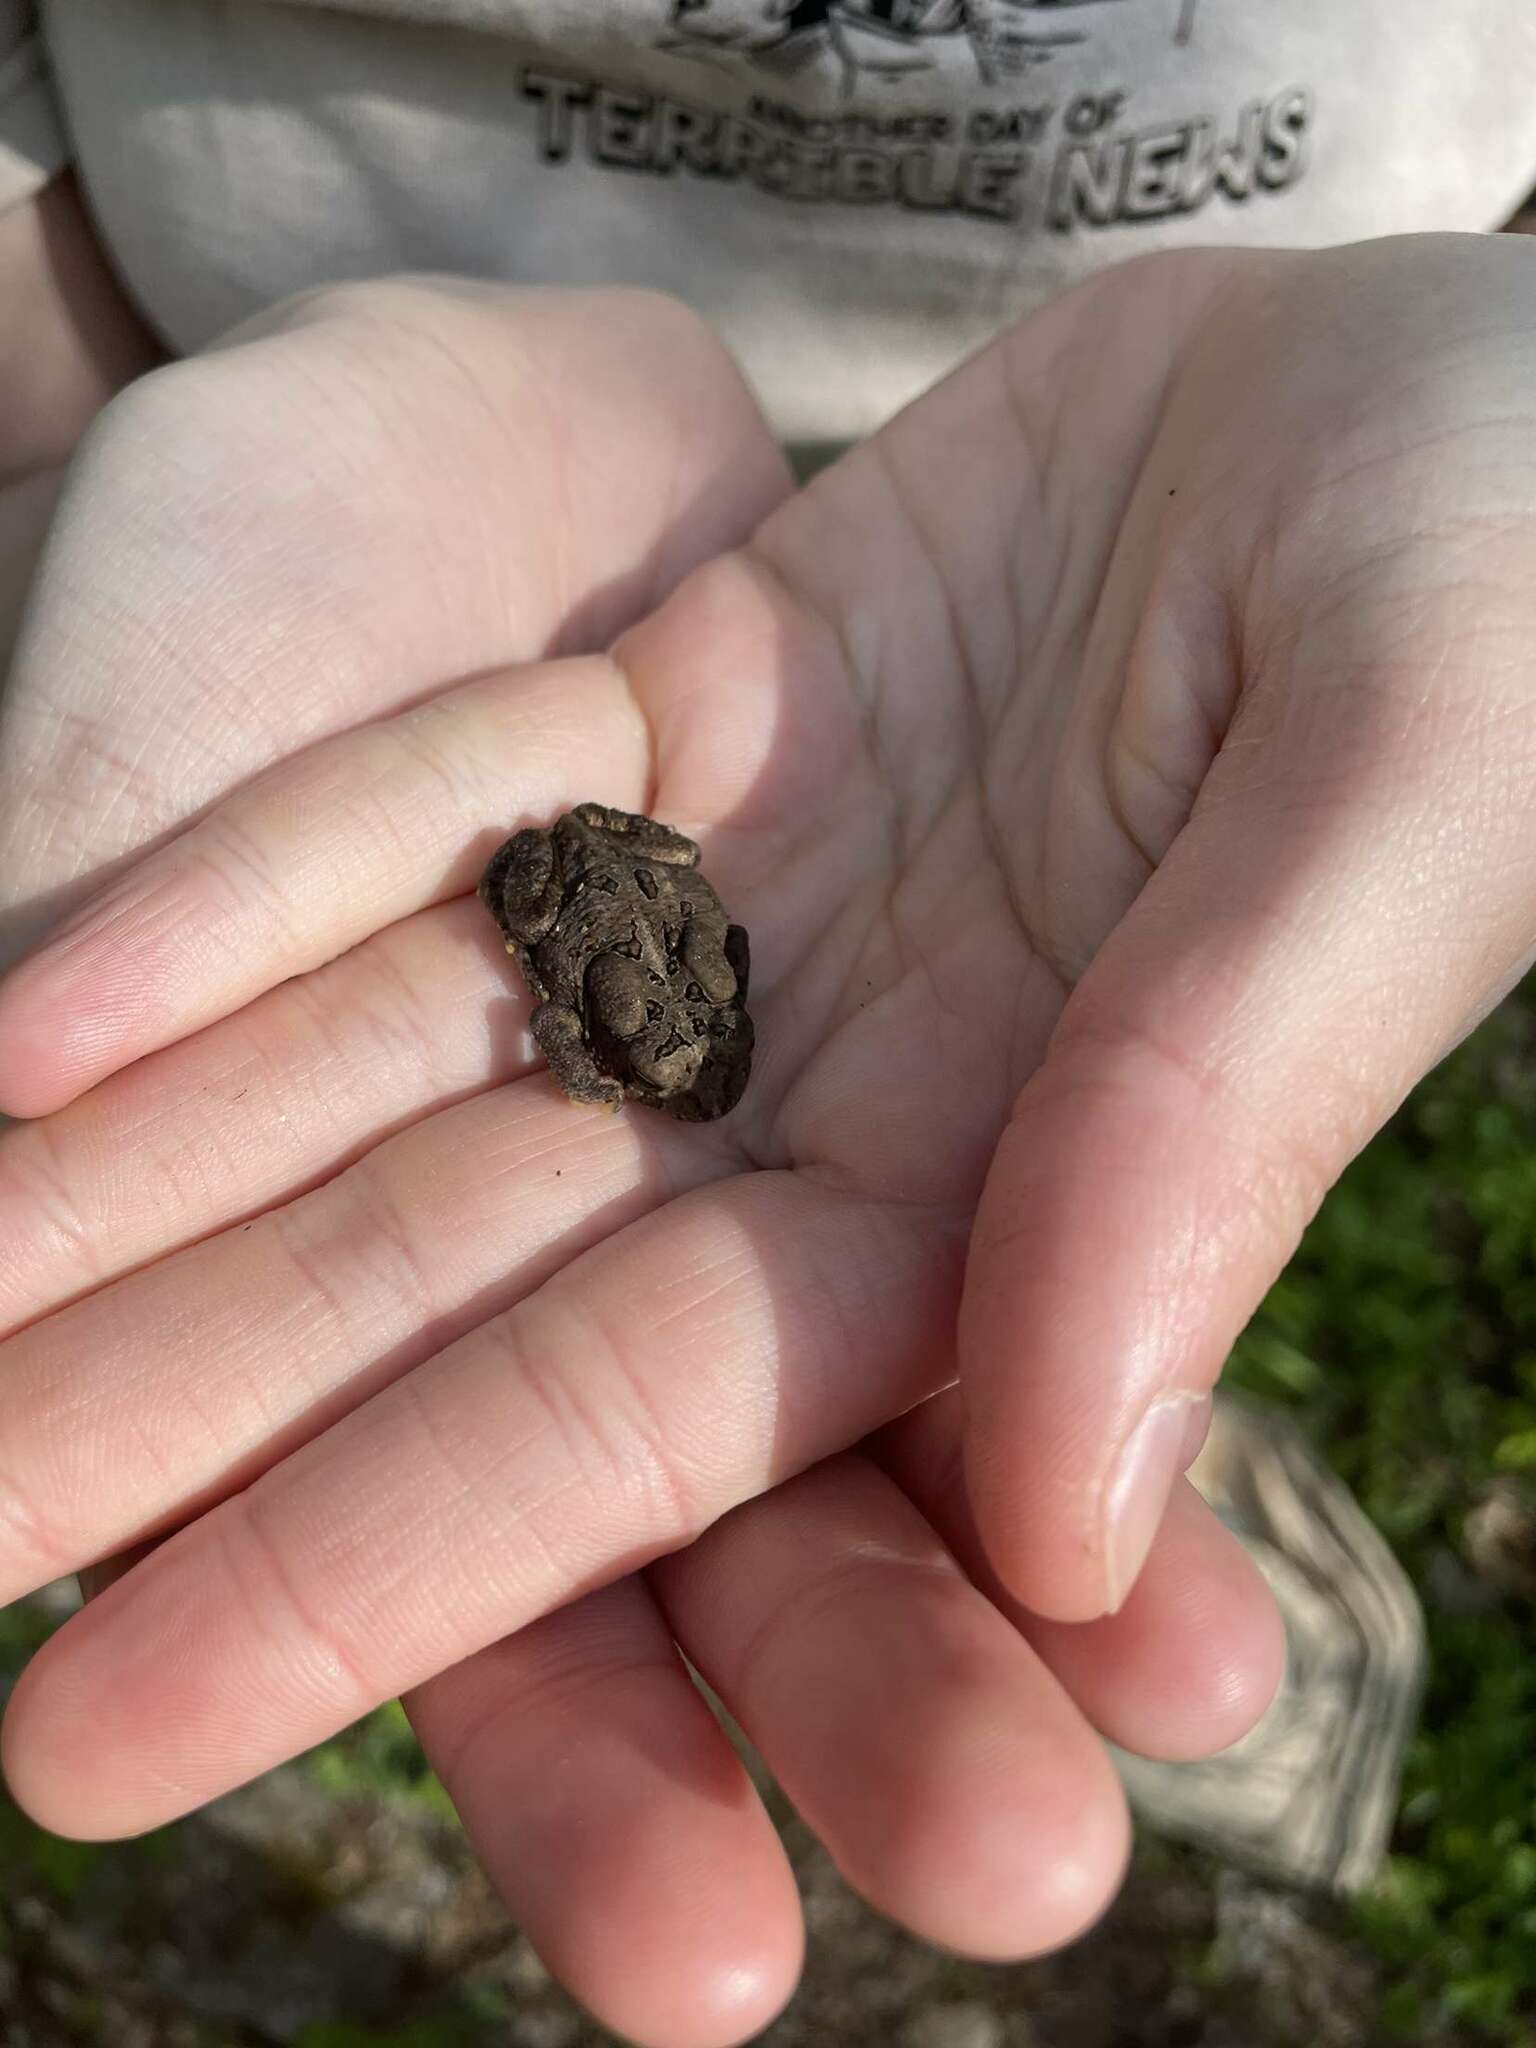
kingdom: Animalia
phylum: Chordata
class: Amphibia
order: Anura
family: Bufonidae
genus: Anaxyrus
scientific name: Anaxyrus americanus
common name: American toad
